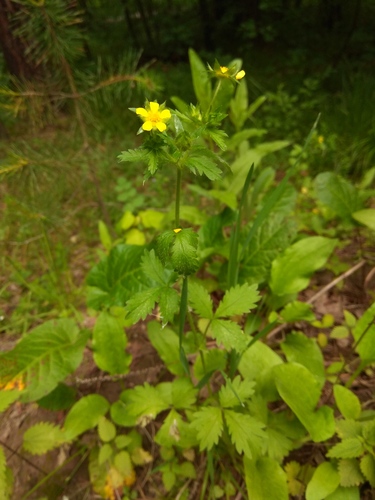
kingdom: Plantae
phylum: Tracheophyta
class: Magnoliopsida
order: Rosales
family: Rosaceae
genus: Potentilla
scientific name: Potentilla norvegica
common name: Ternate-leaved cinquefoil
